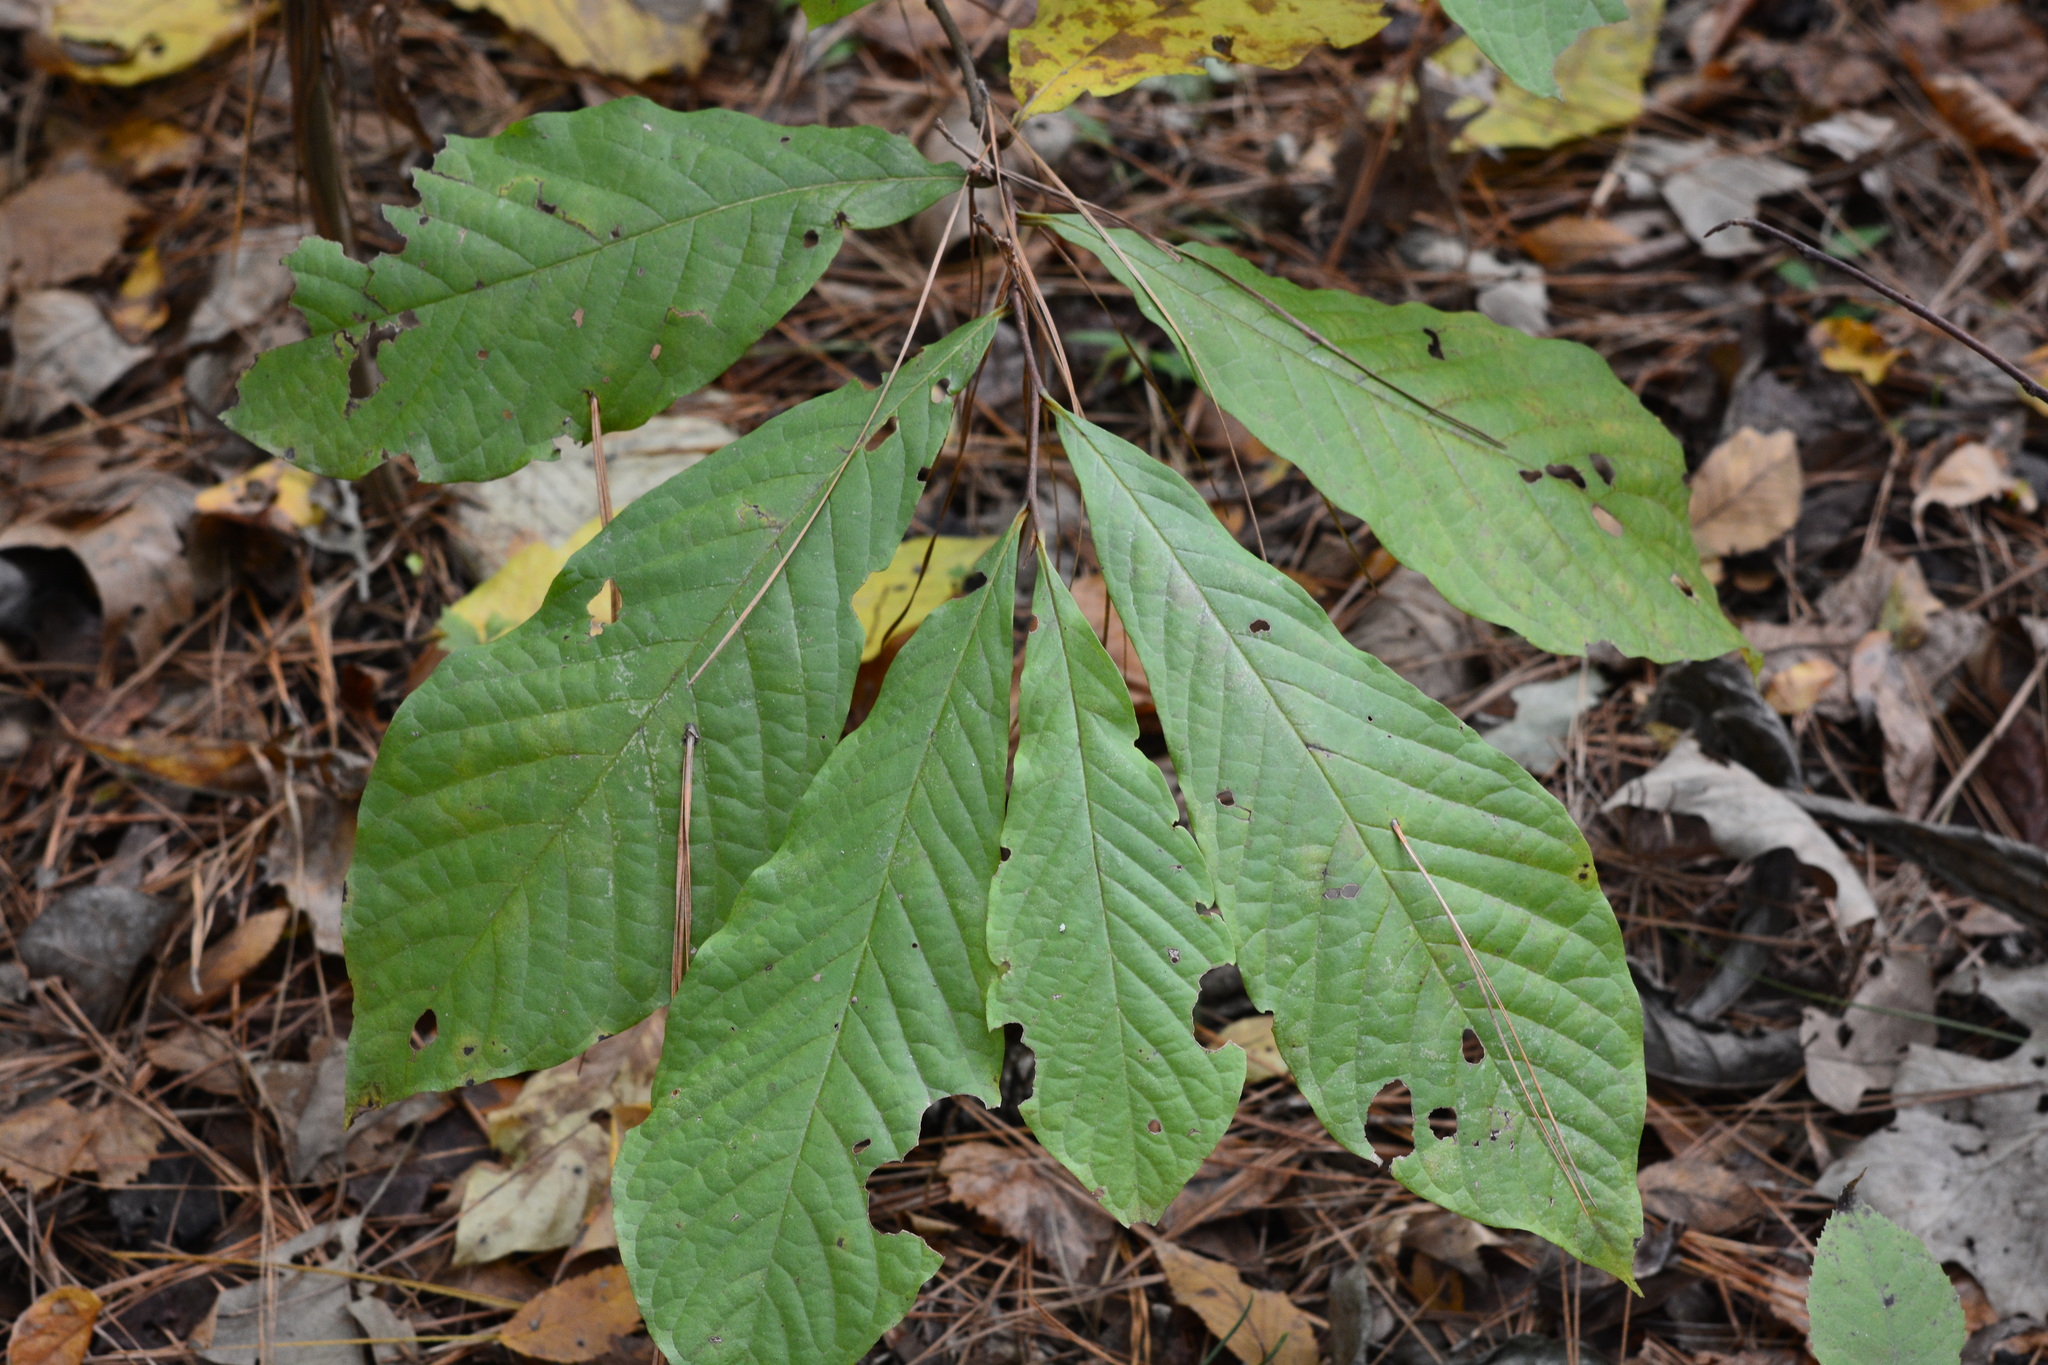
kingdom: Plantae
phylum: Tracheophyta
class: Magnoliopsida
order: Magnoliales
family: Annonaceae
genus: Asimina
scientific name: Asimina triloba
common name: Dog-banana
